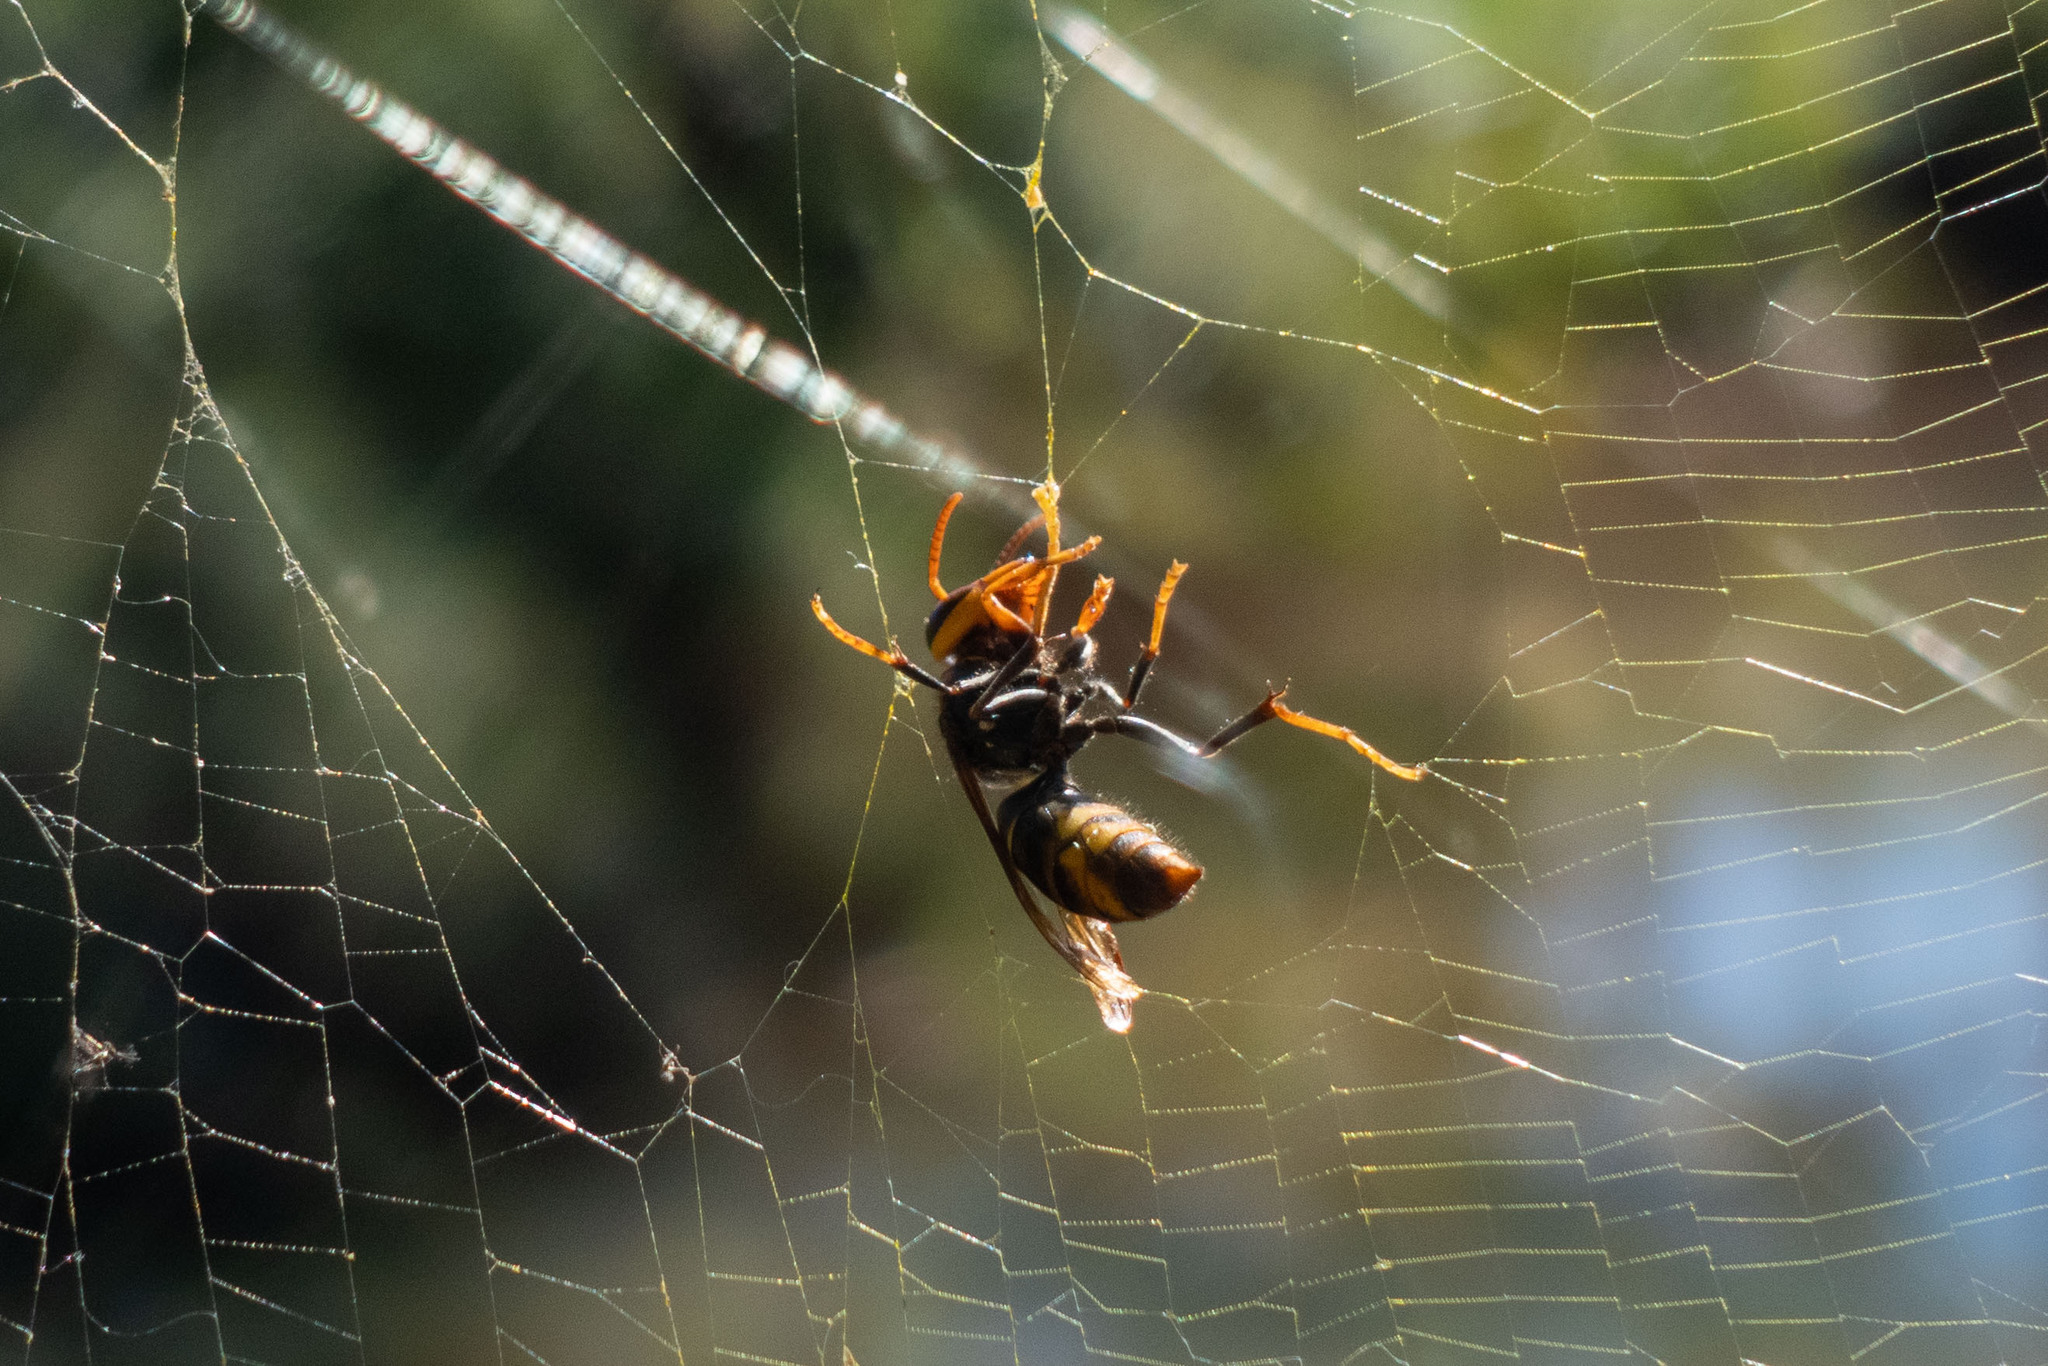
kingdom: Animalia
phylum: Arthropoda
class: Insecta
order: Hymenoptera
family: Vespidae
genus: Vespa
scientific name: Vespa velutina
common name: Asian hornet
